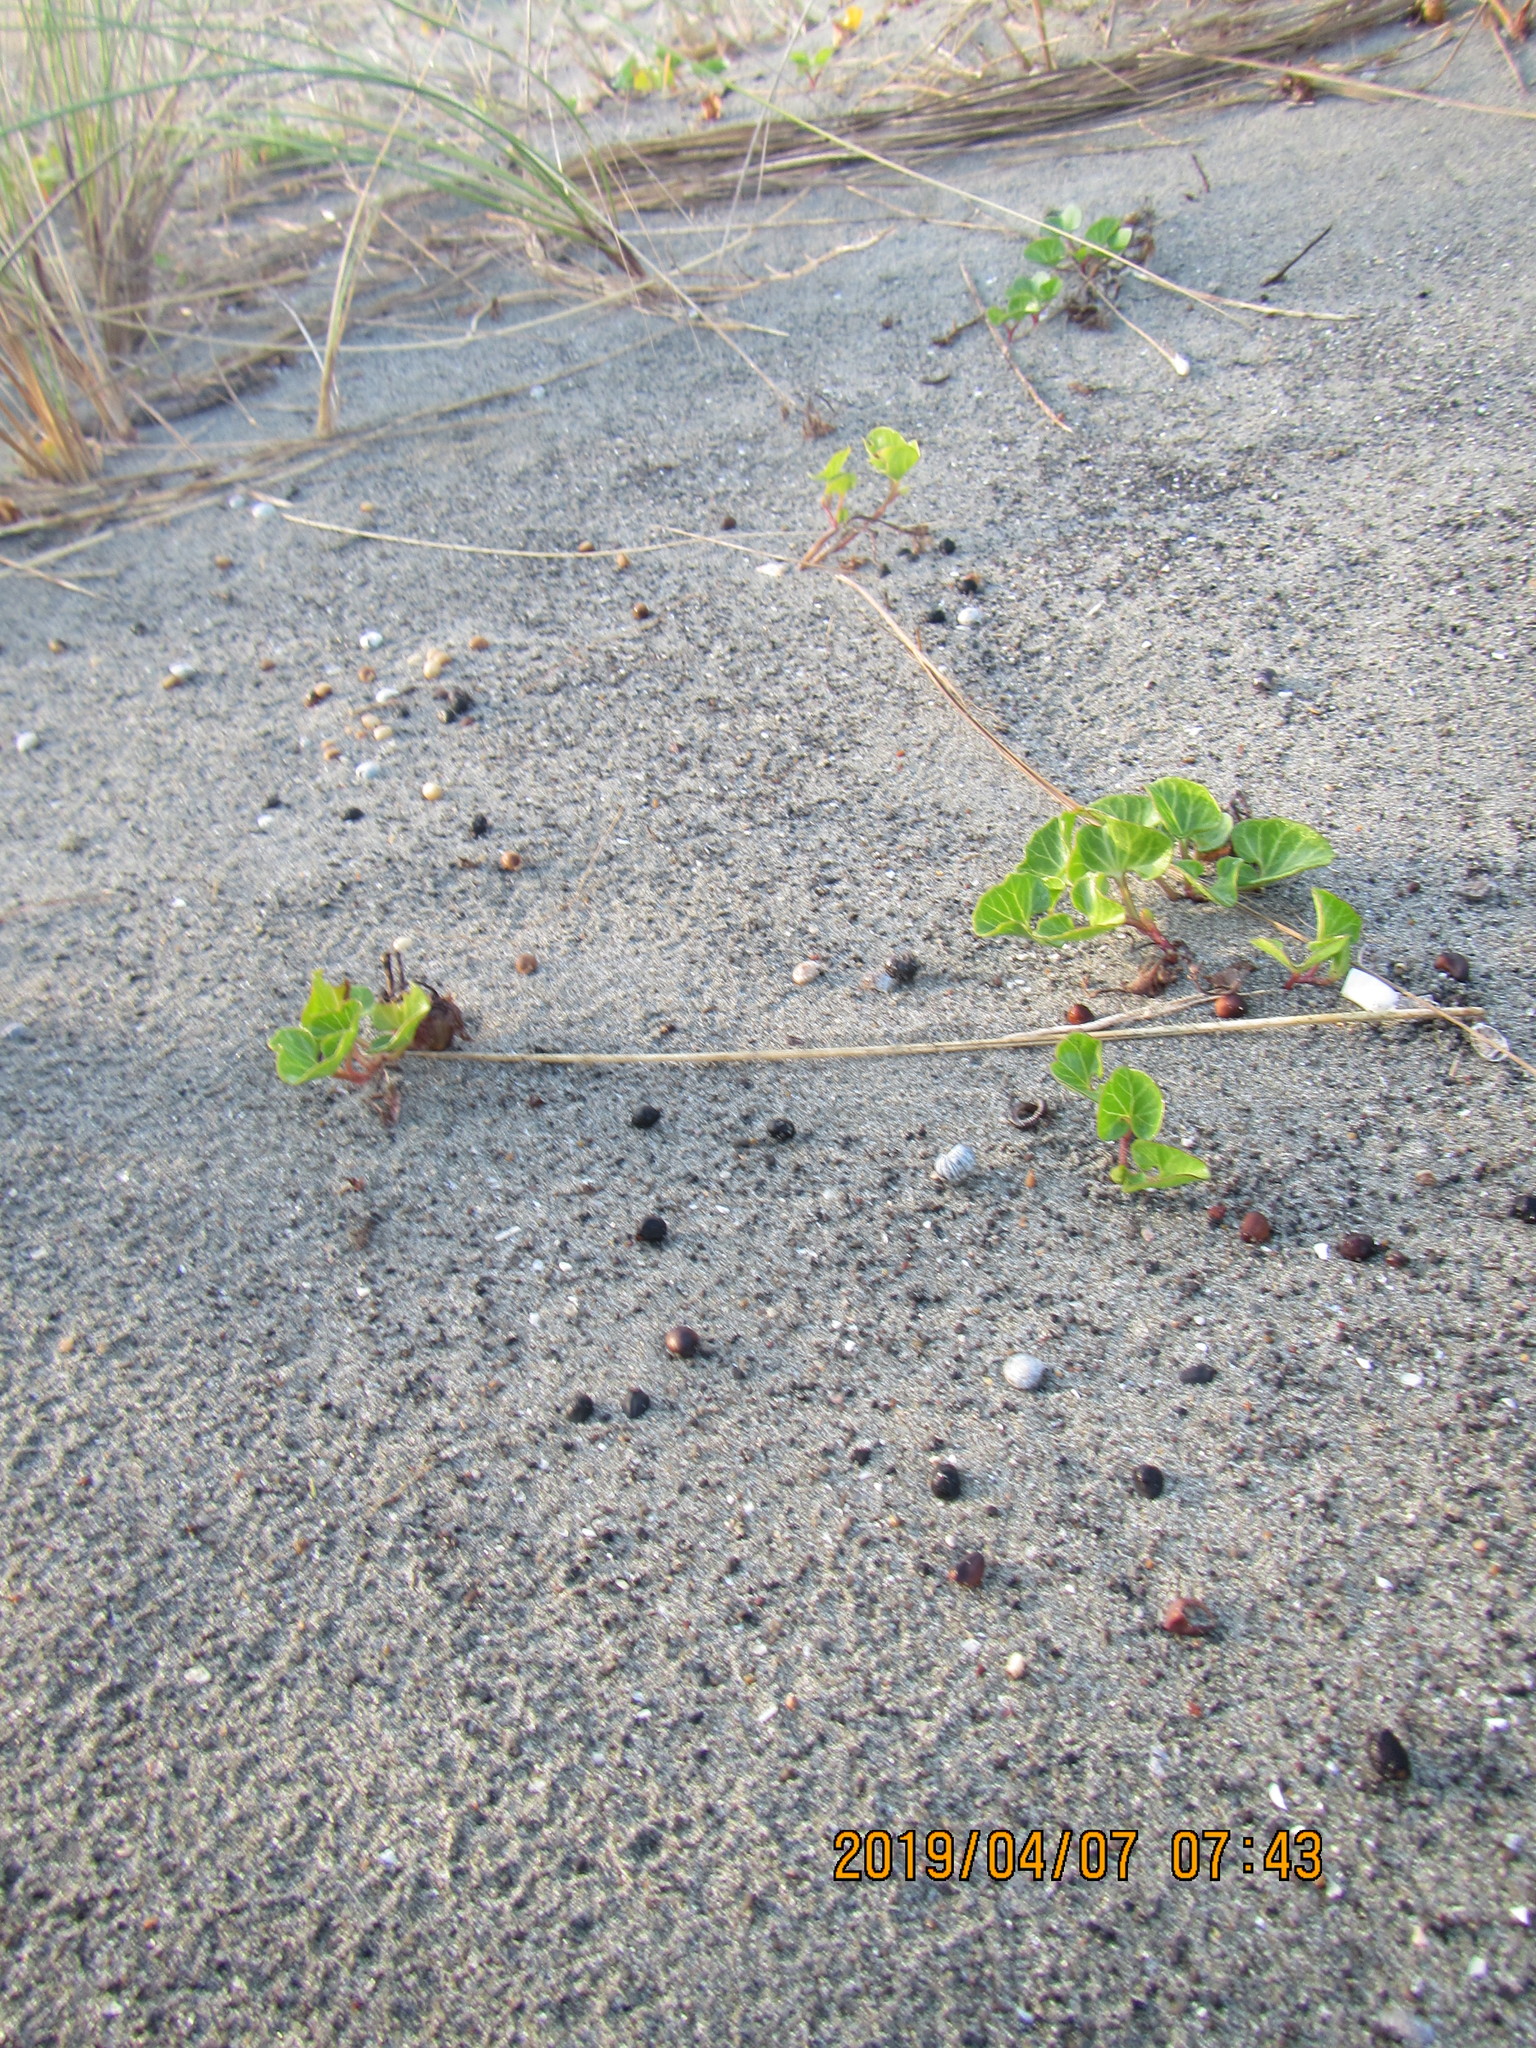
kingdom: Plantae
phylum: Tracheophyta
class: Magnoliopsida
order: Solanales
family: Convolvulaceae
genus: Calystegia
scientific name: Calystegia soldanella
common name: Sea bindweed
